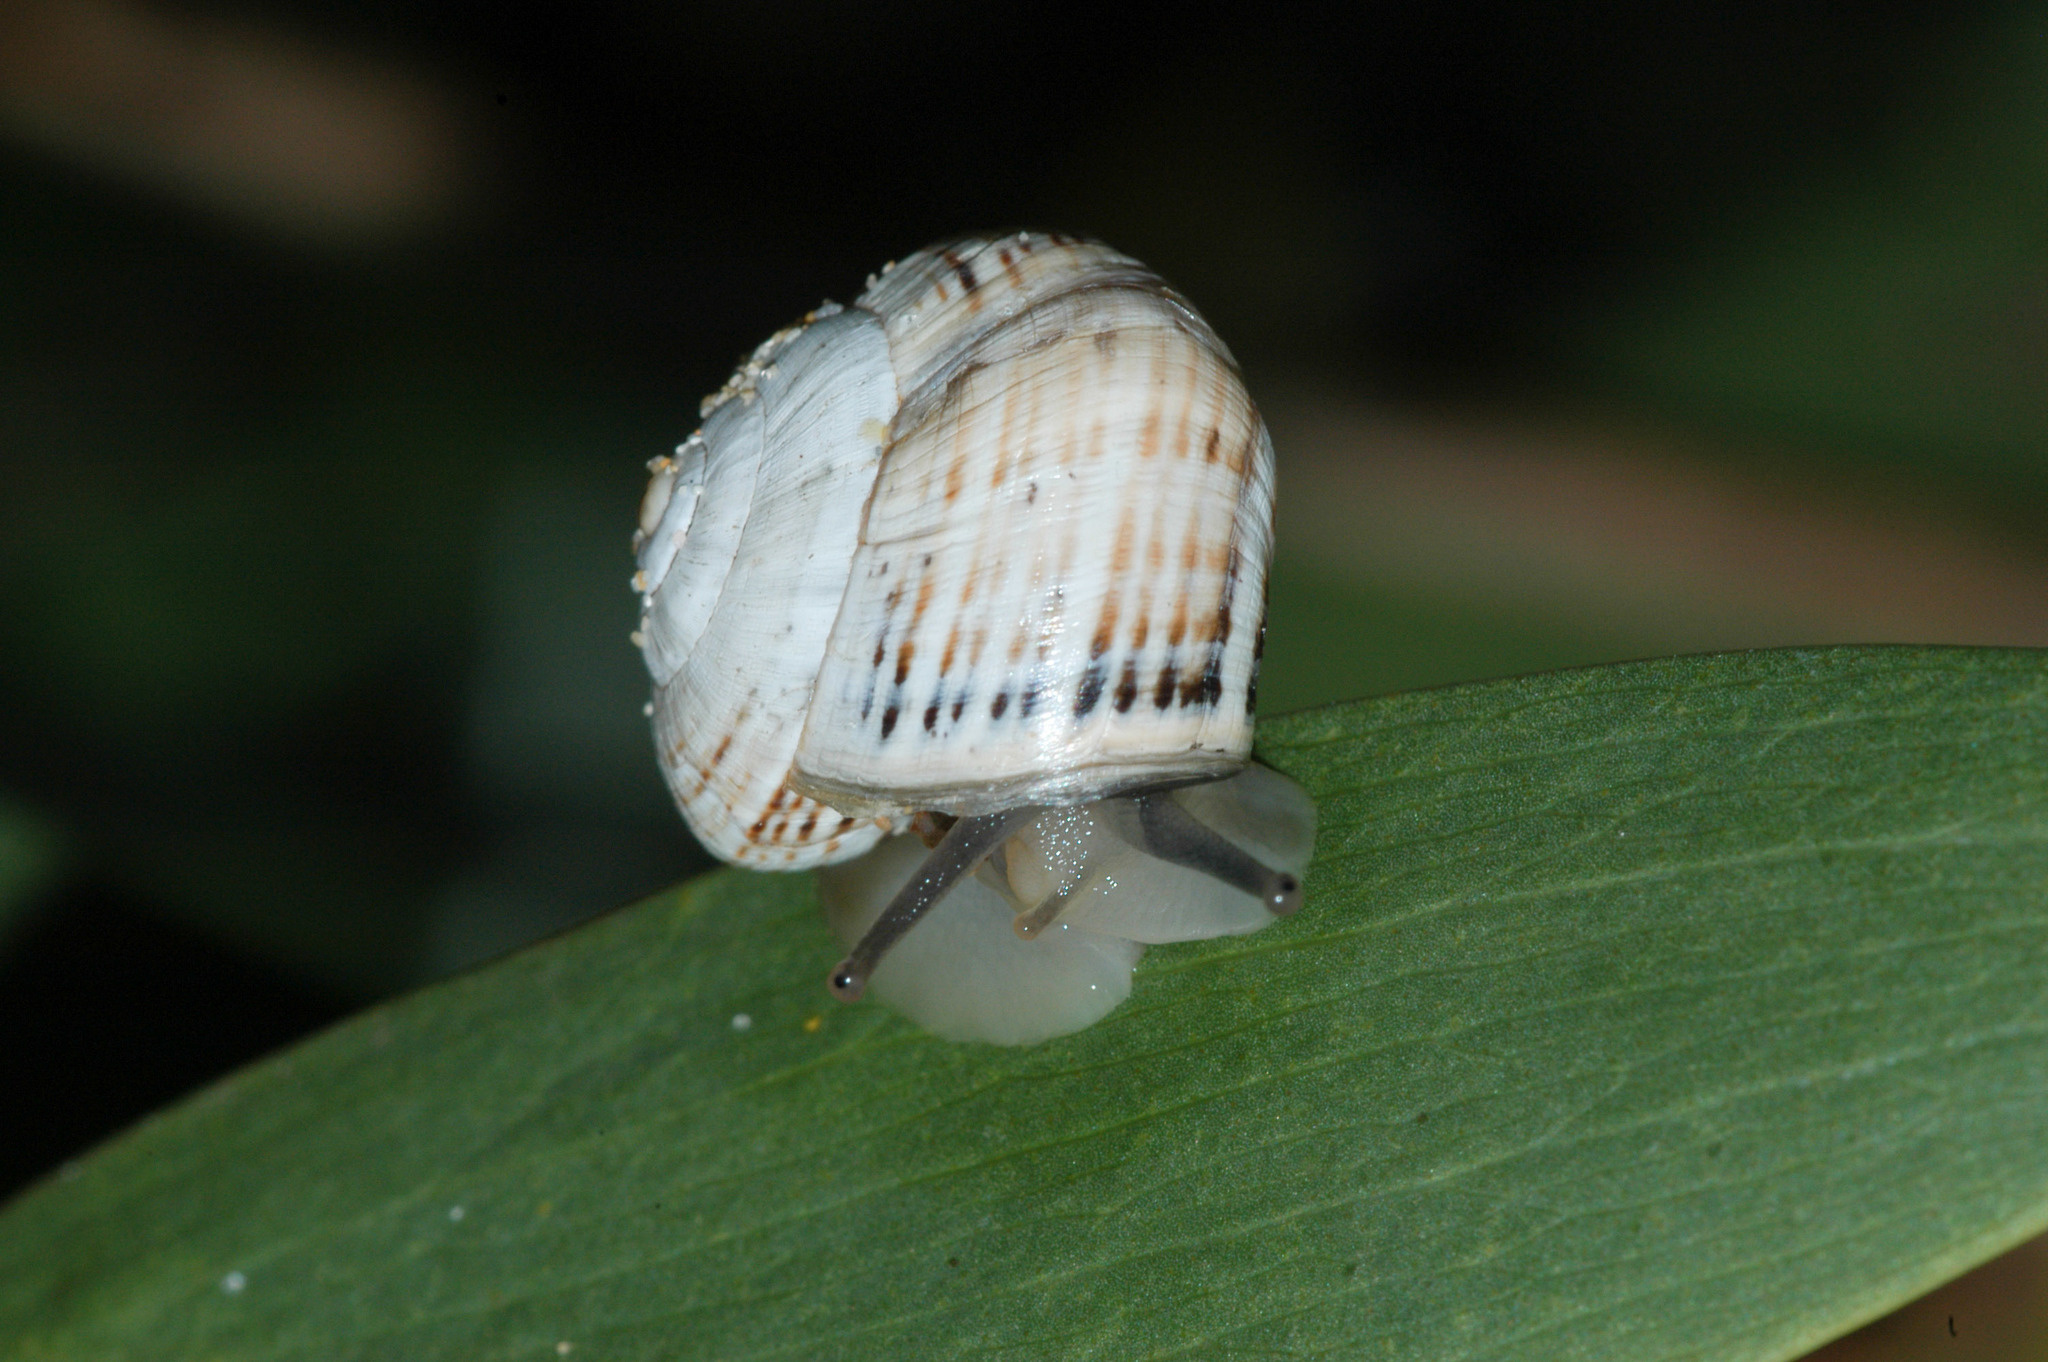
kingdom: Animalia
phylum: Mollusca
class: Gastropoda
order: Stylommatophora
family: Helicidae
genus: Theba
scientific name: Theba pisana
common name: White snail
